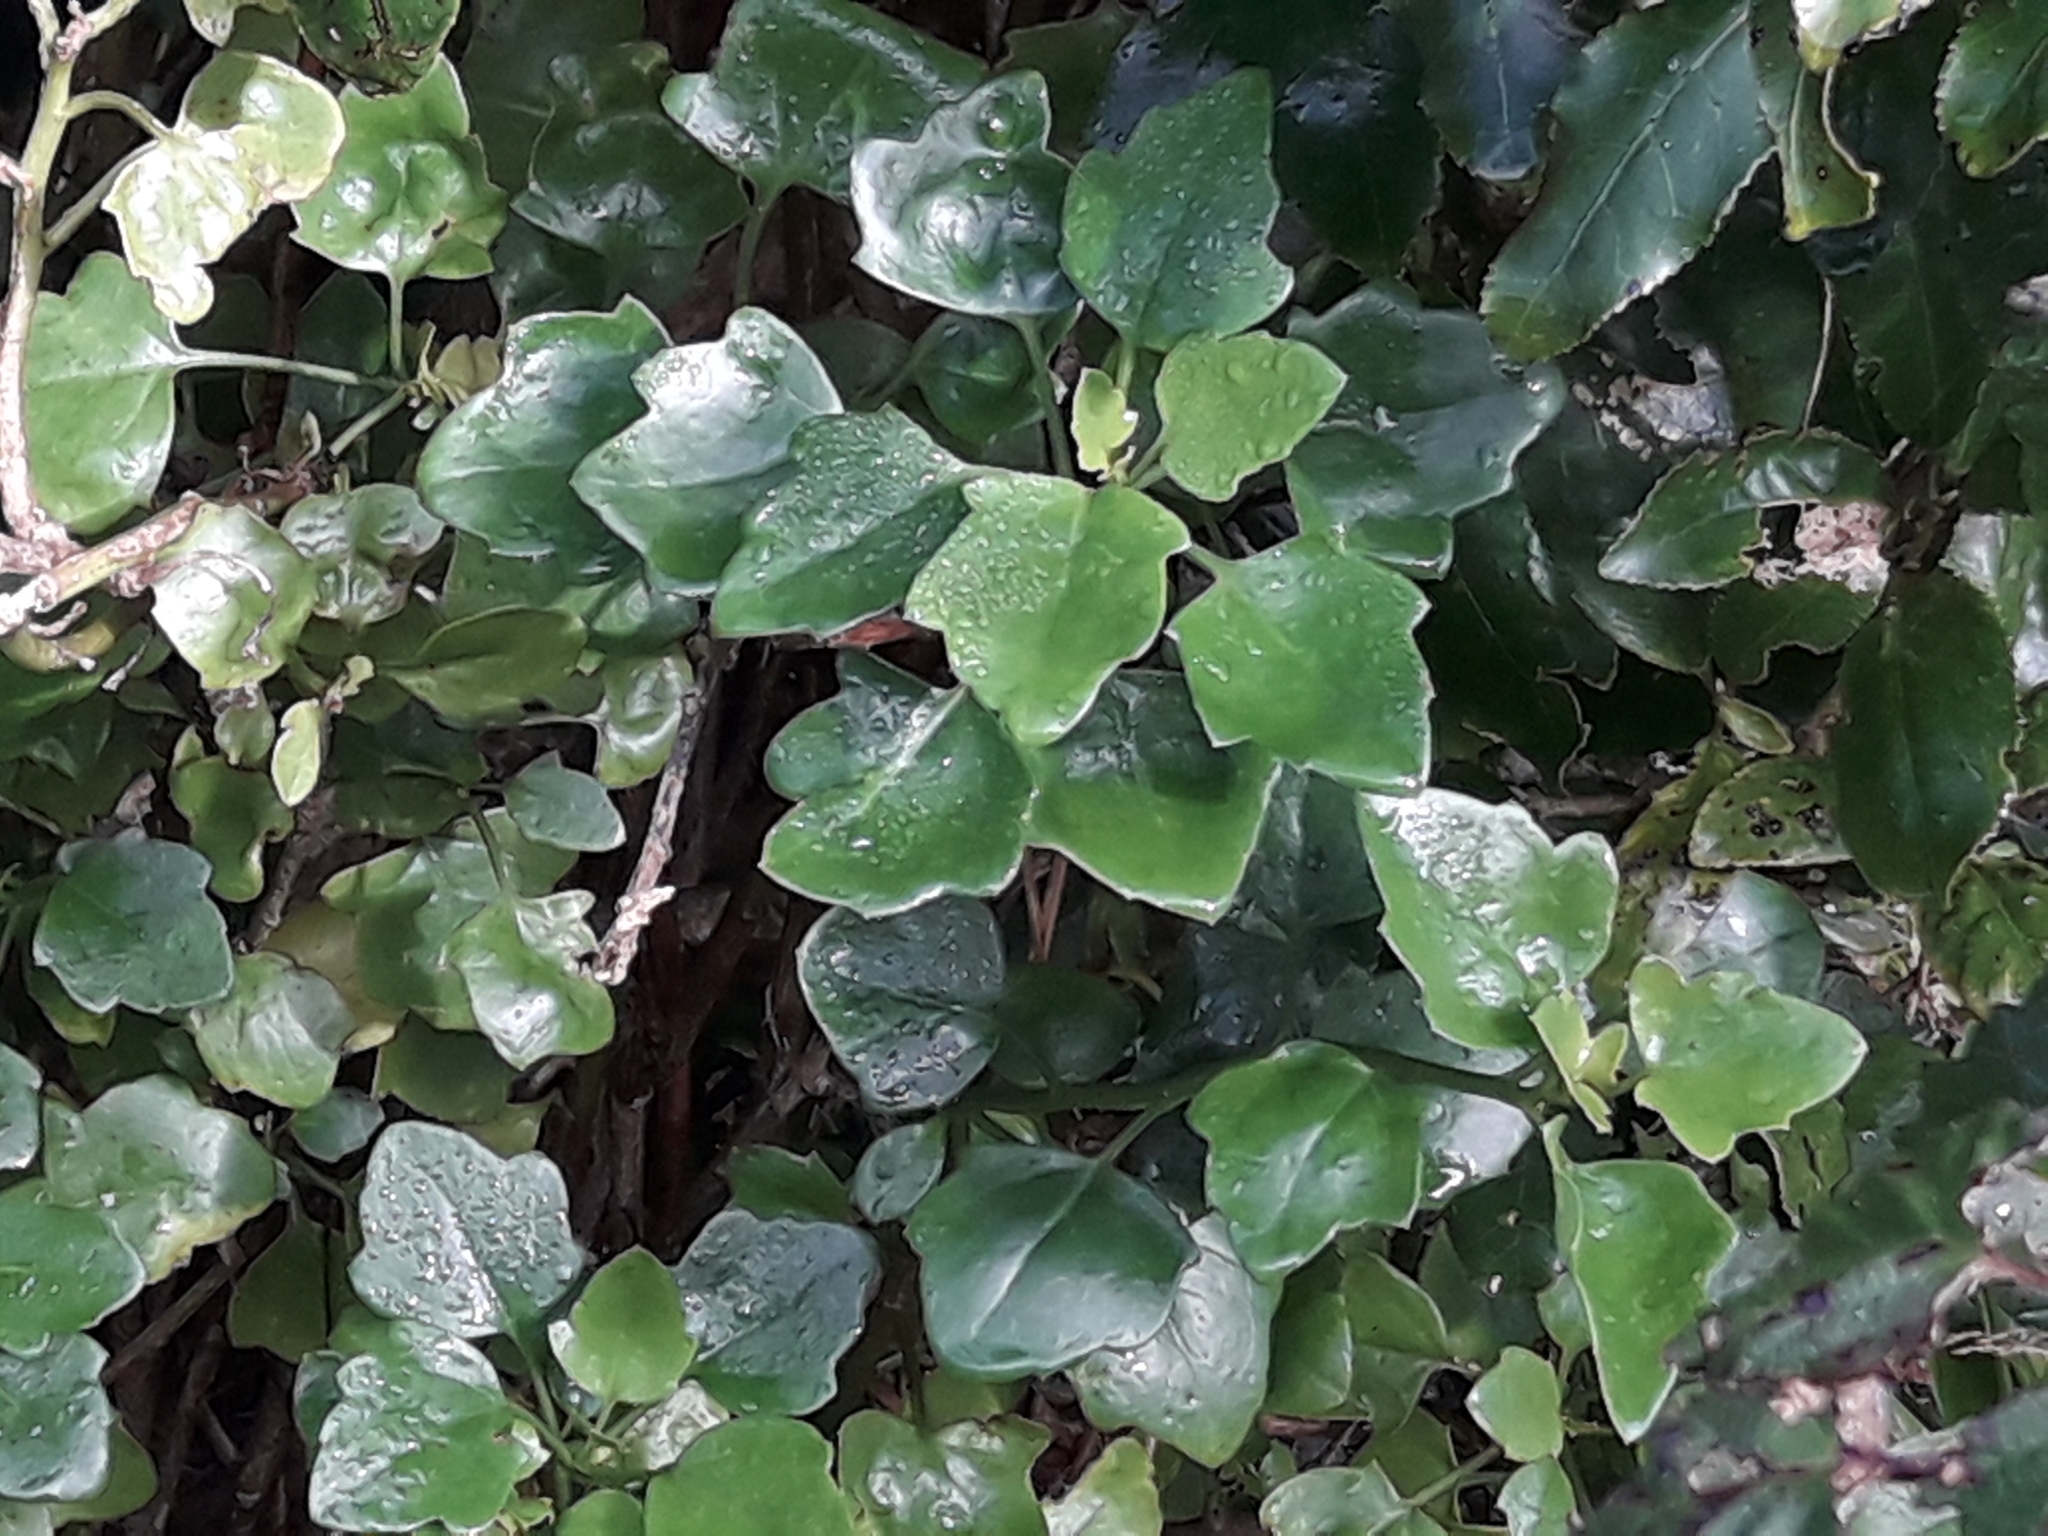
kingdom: Plantae
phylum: Tracheophyta
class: Magnoliopsida
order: Asterales
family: Asteraceae
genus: Senecio
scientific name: Senecio angulatus
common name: Climbing groundsel
